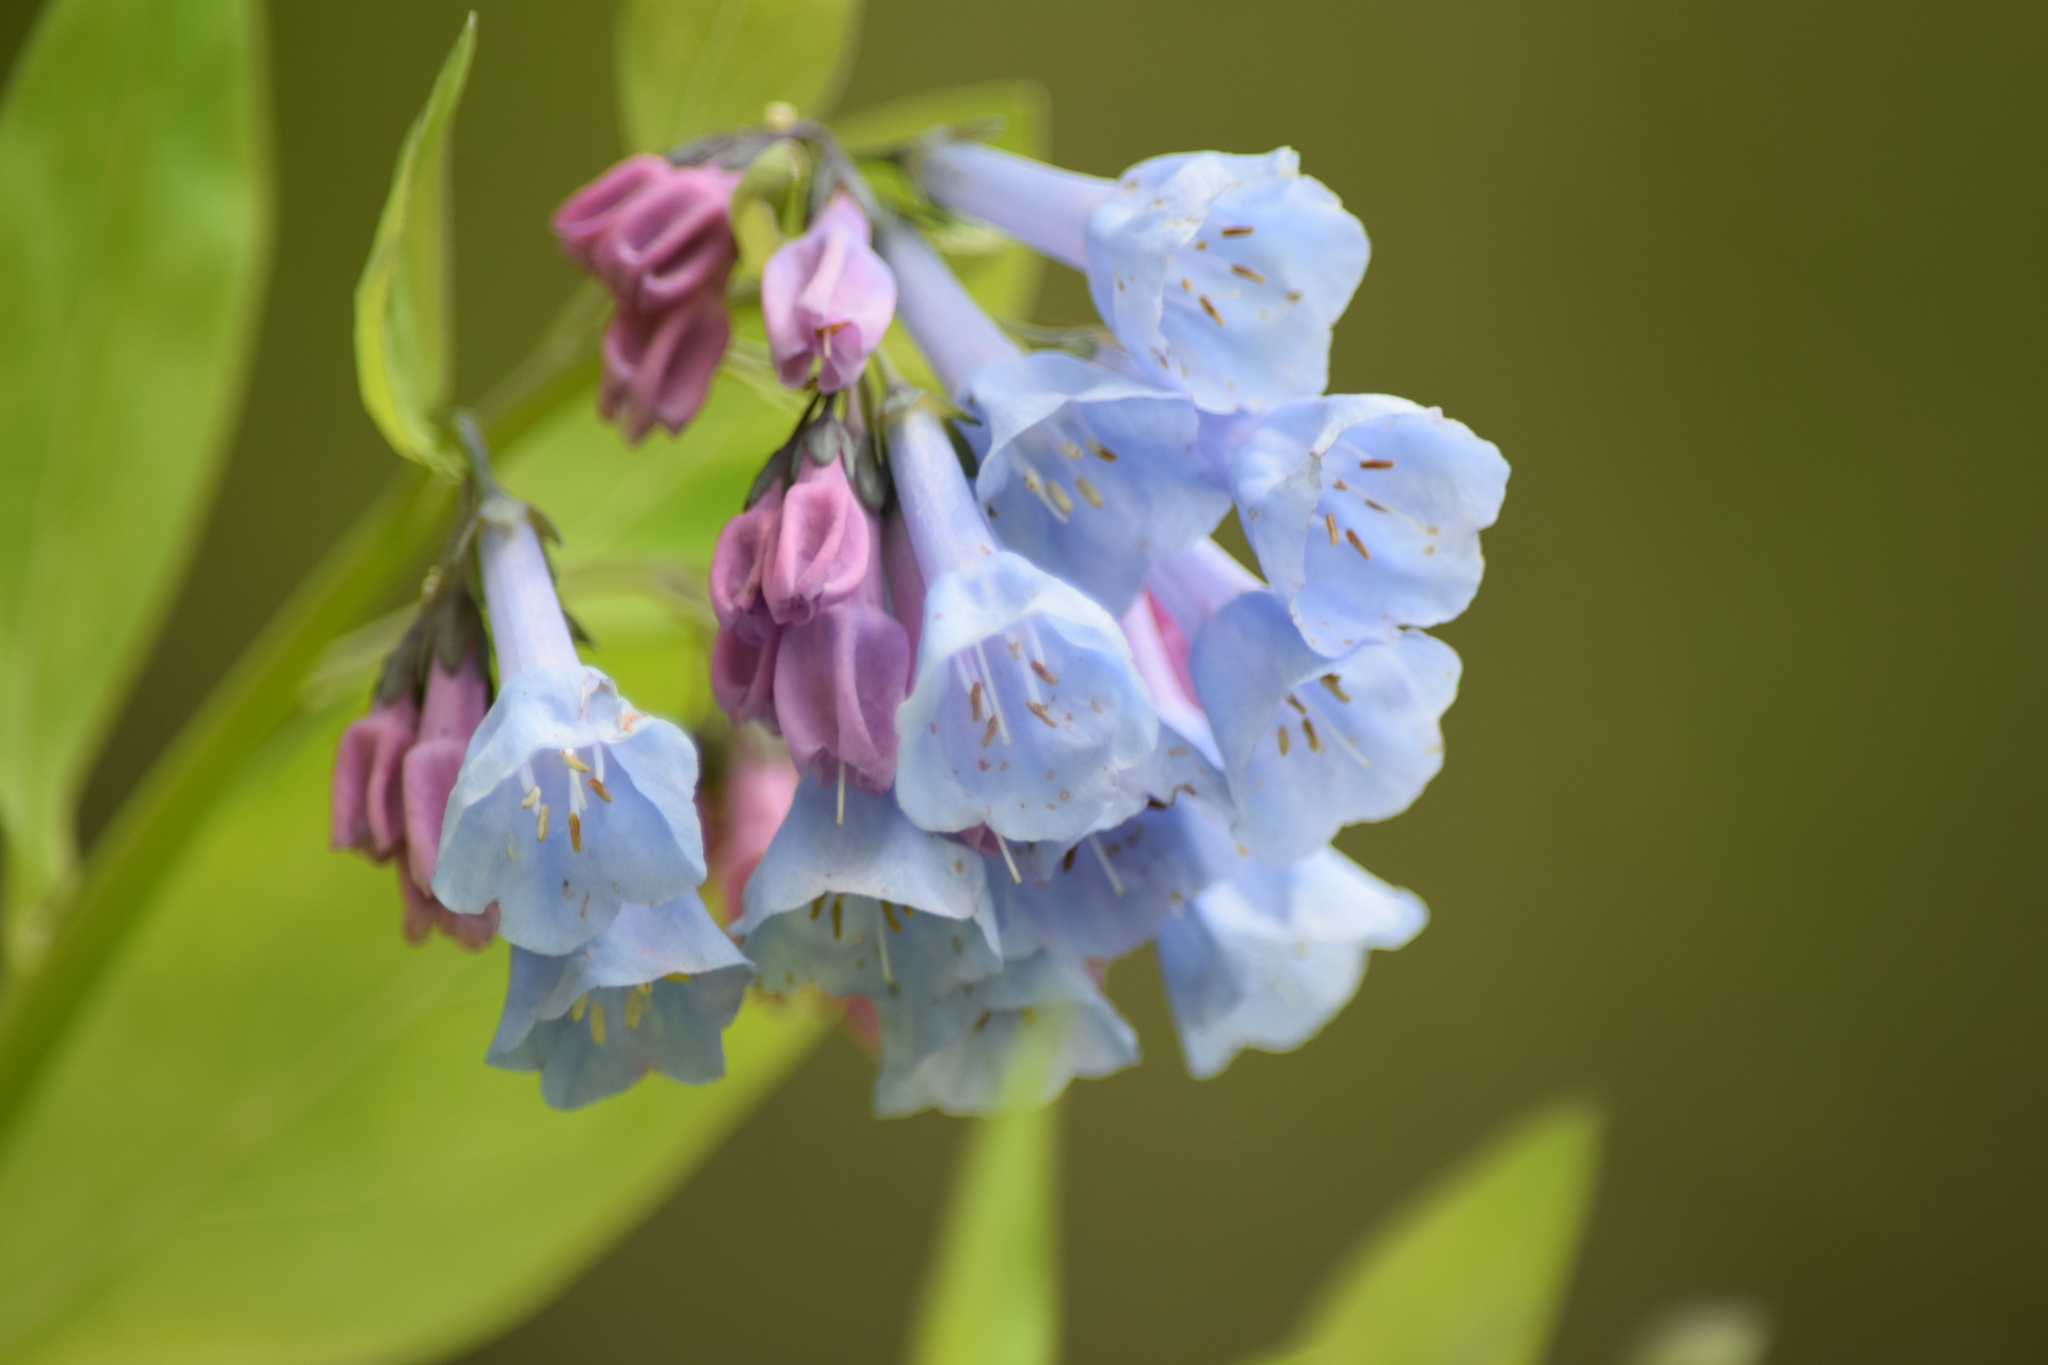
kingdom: Plantae
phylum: Tracheophyta
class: Magnoliopsida
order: Boraginales
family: Boraginaceae
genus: Mertensia
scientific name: Mertensia virginica
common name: Virginia bluebells
